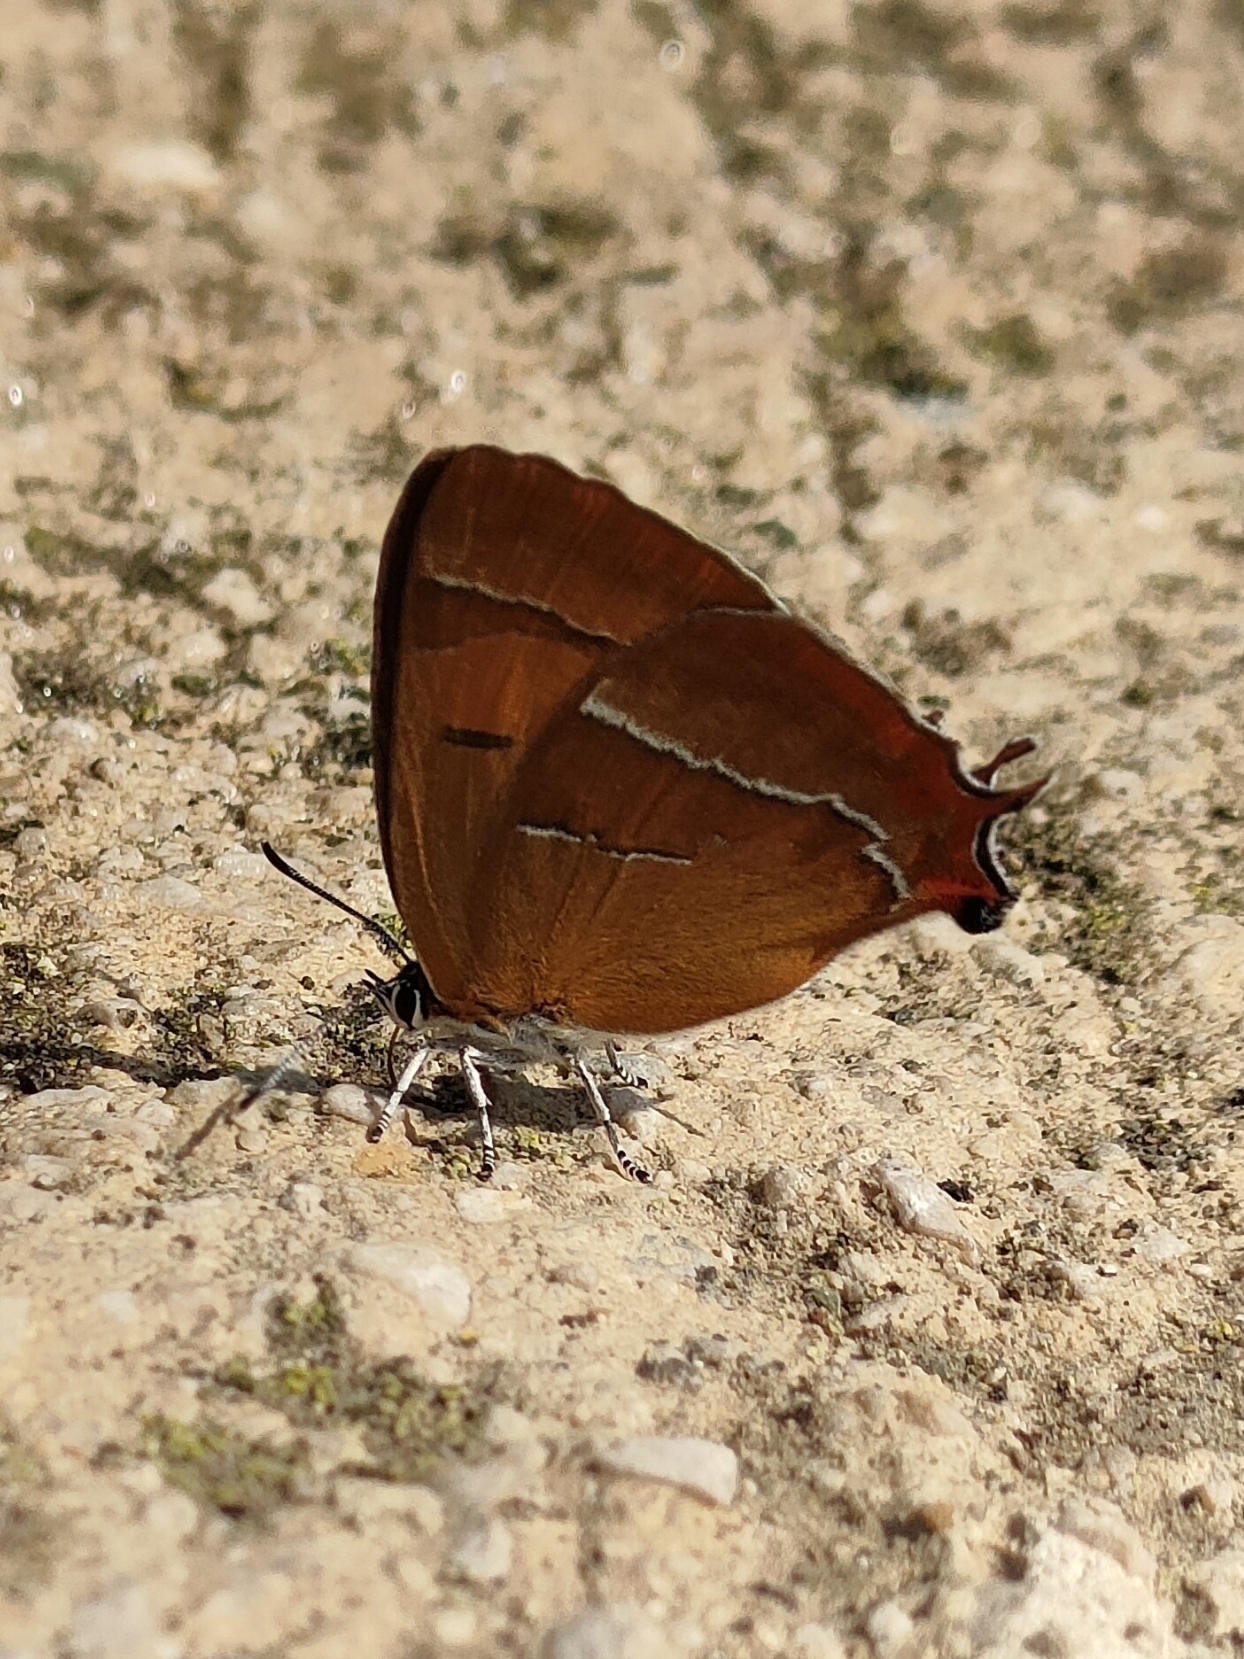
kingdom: Animalia
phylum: Arthropoda
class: Insecta
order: Lepidoptera
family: Lycaenidae
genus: Thecla
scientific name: Thecla betulae
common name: Brown hairstreak
